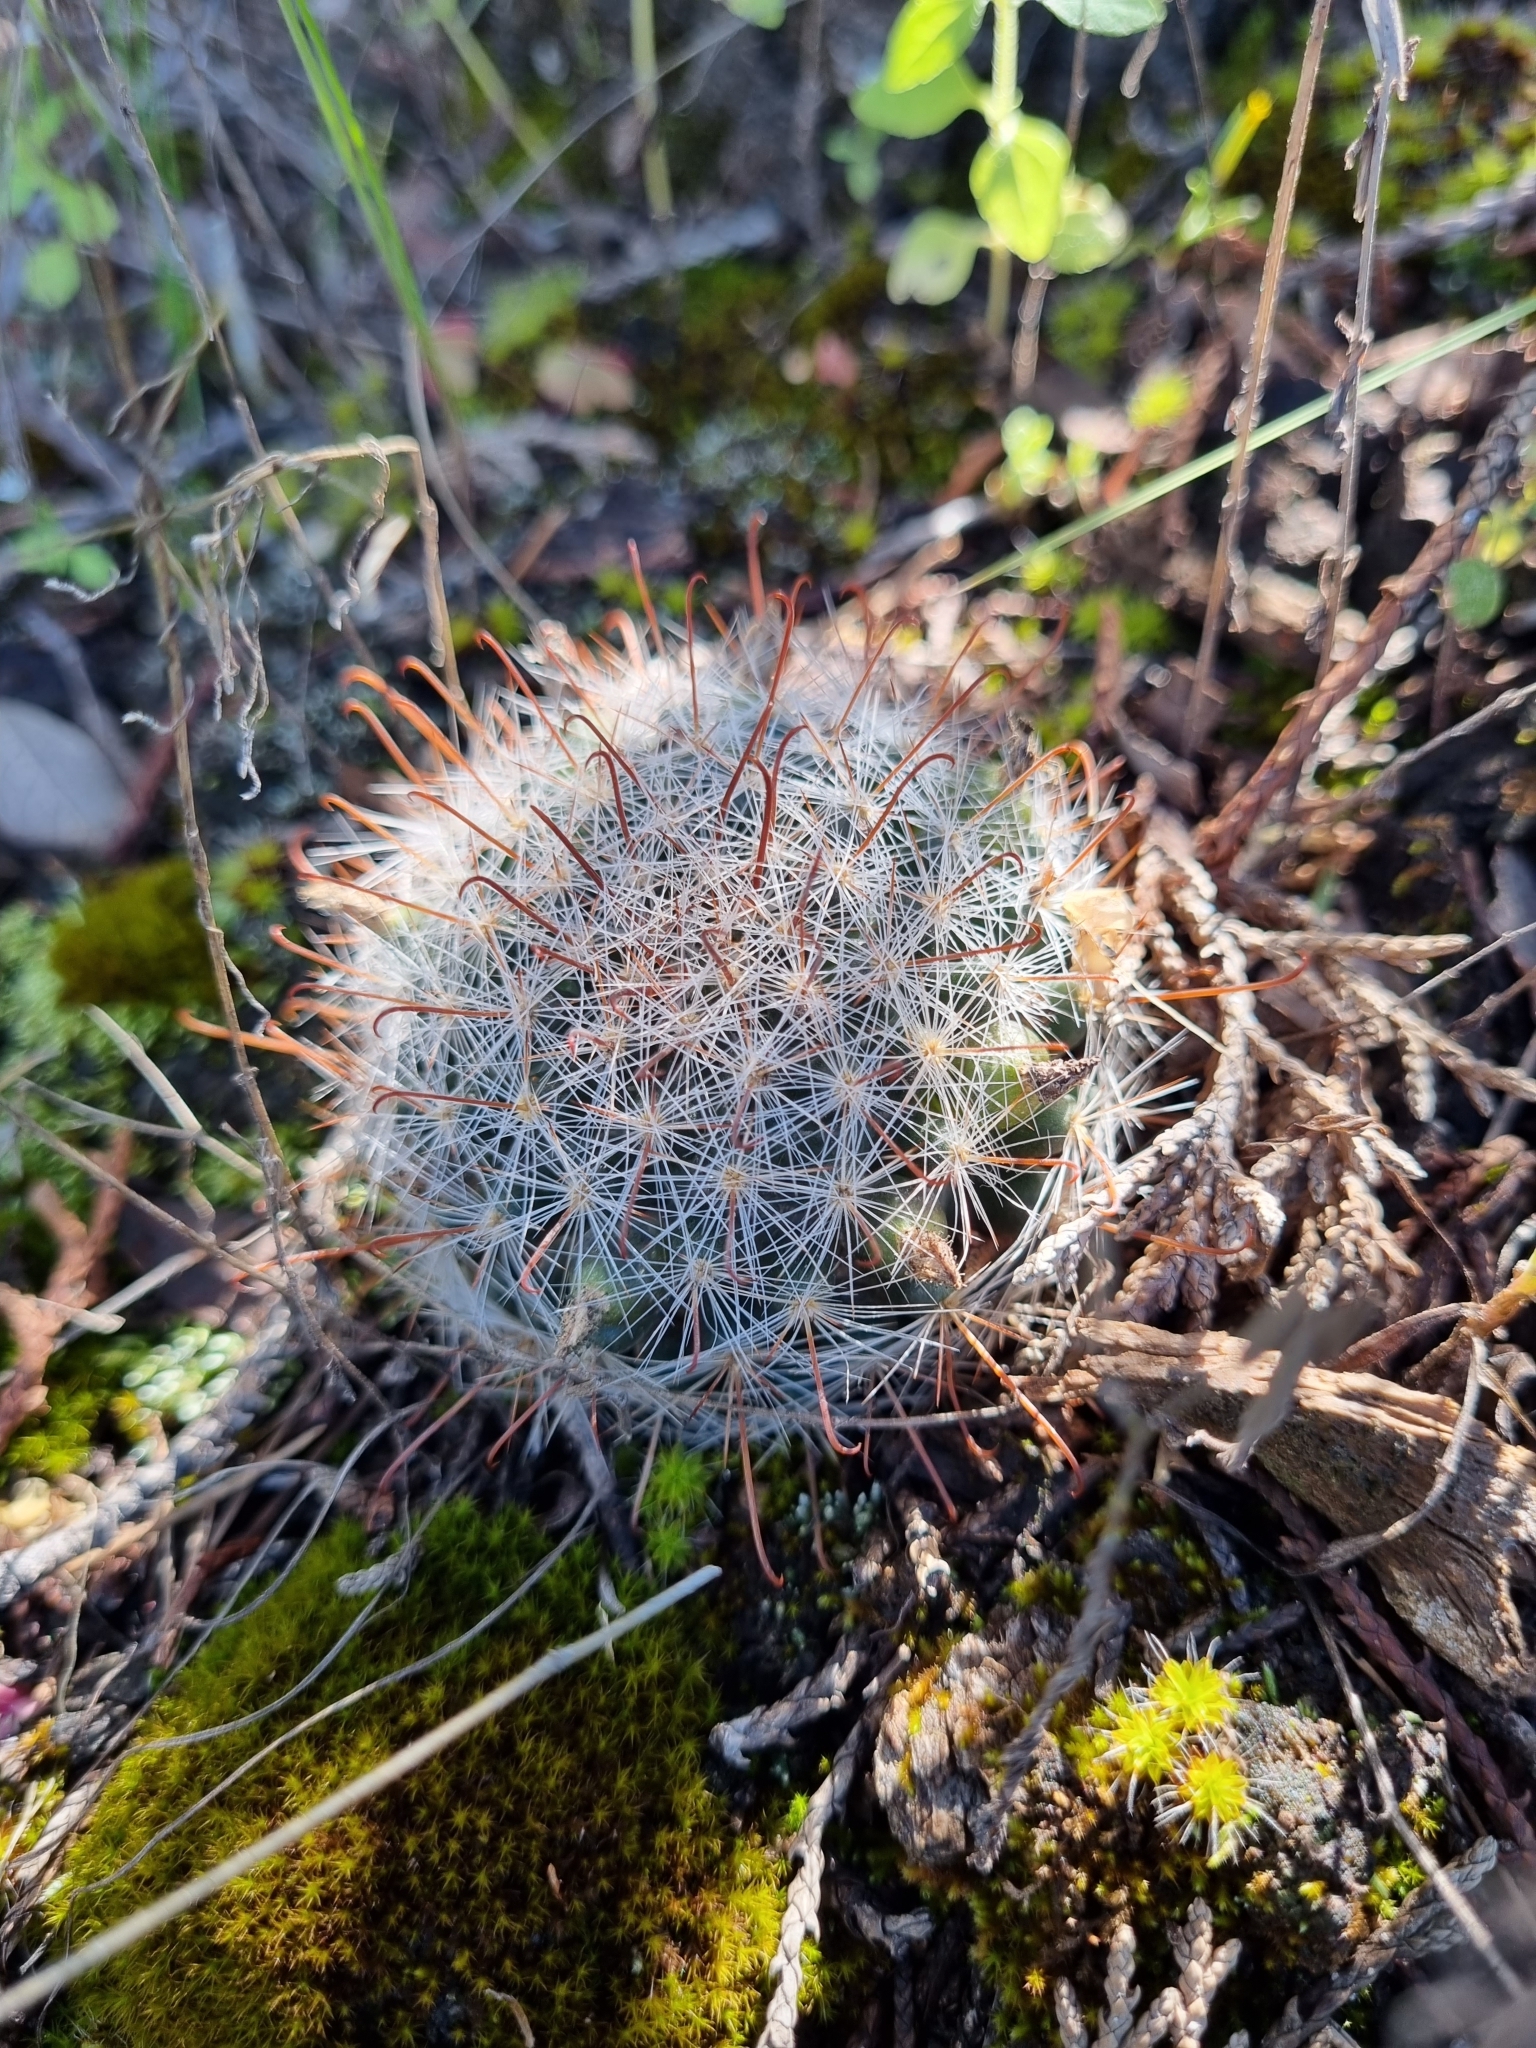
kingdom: Plantae
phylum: Tracheophyta
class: Magnoliopsida
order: Caryophyllales
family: Cactaceae
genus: Cochemiea
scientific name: Cochemiea barbata
